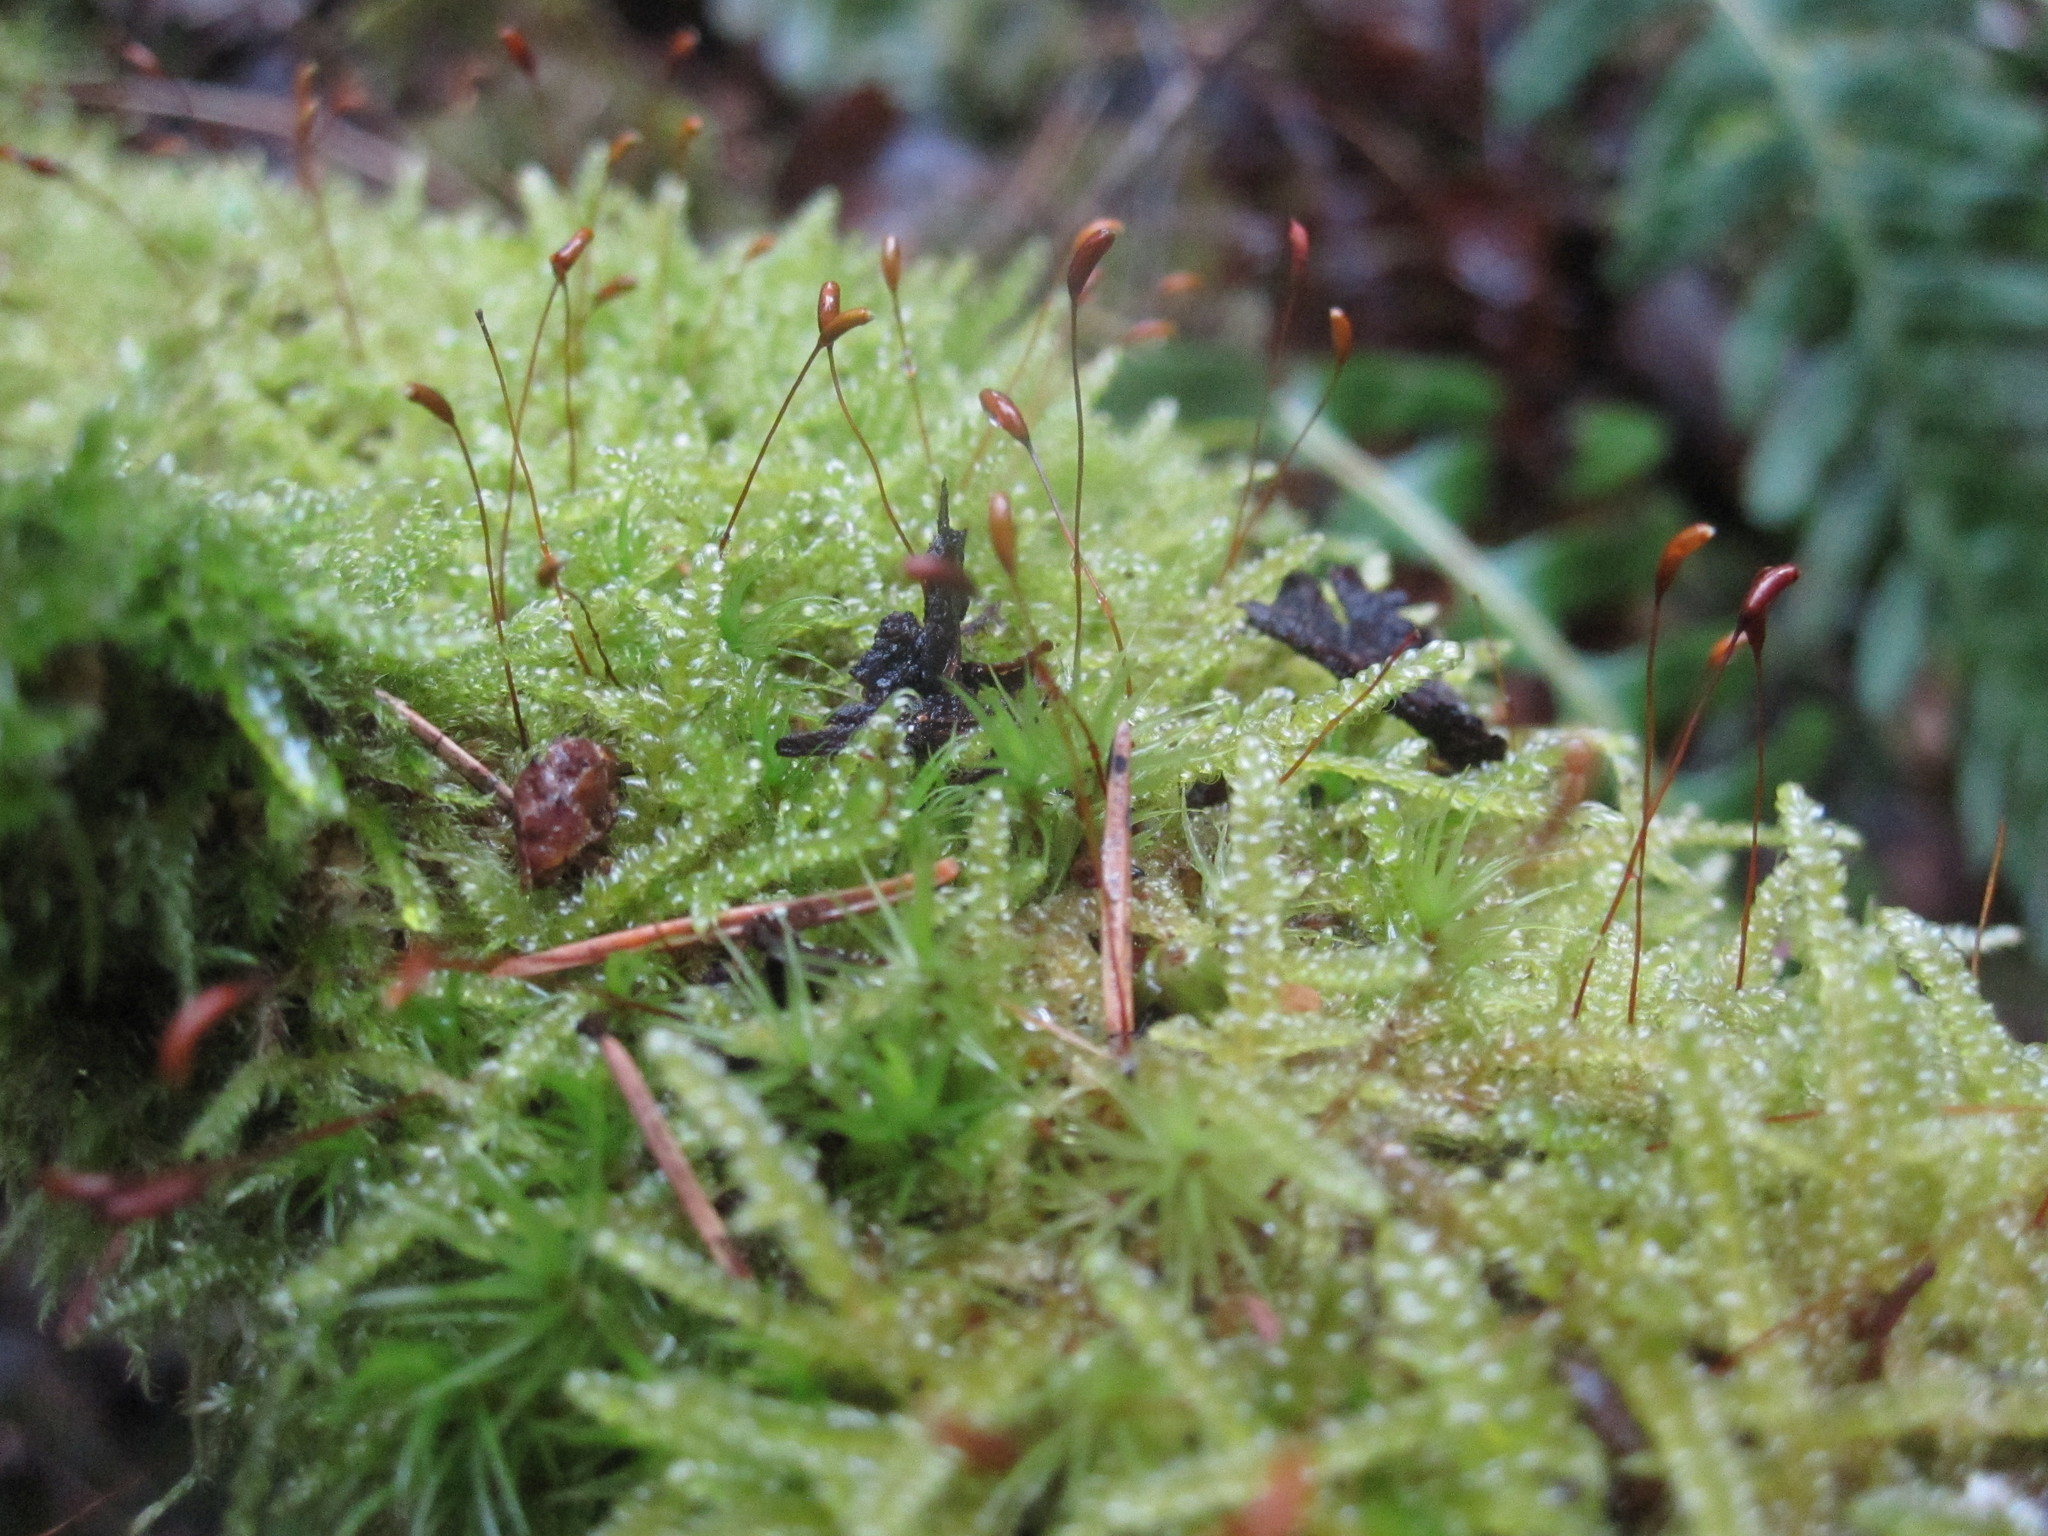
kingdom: Plantae
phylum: Bryophyta
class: Bryopsida
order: Hypnales
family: Hypnaceae
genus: Hypnum
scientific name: Hypnum cupressiforme
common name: Cypress-leaved plait-moss
